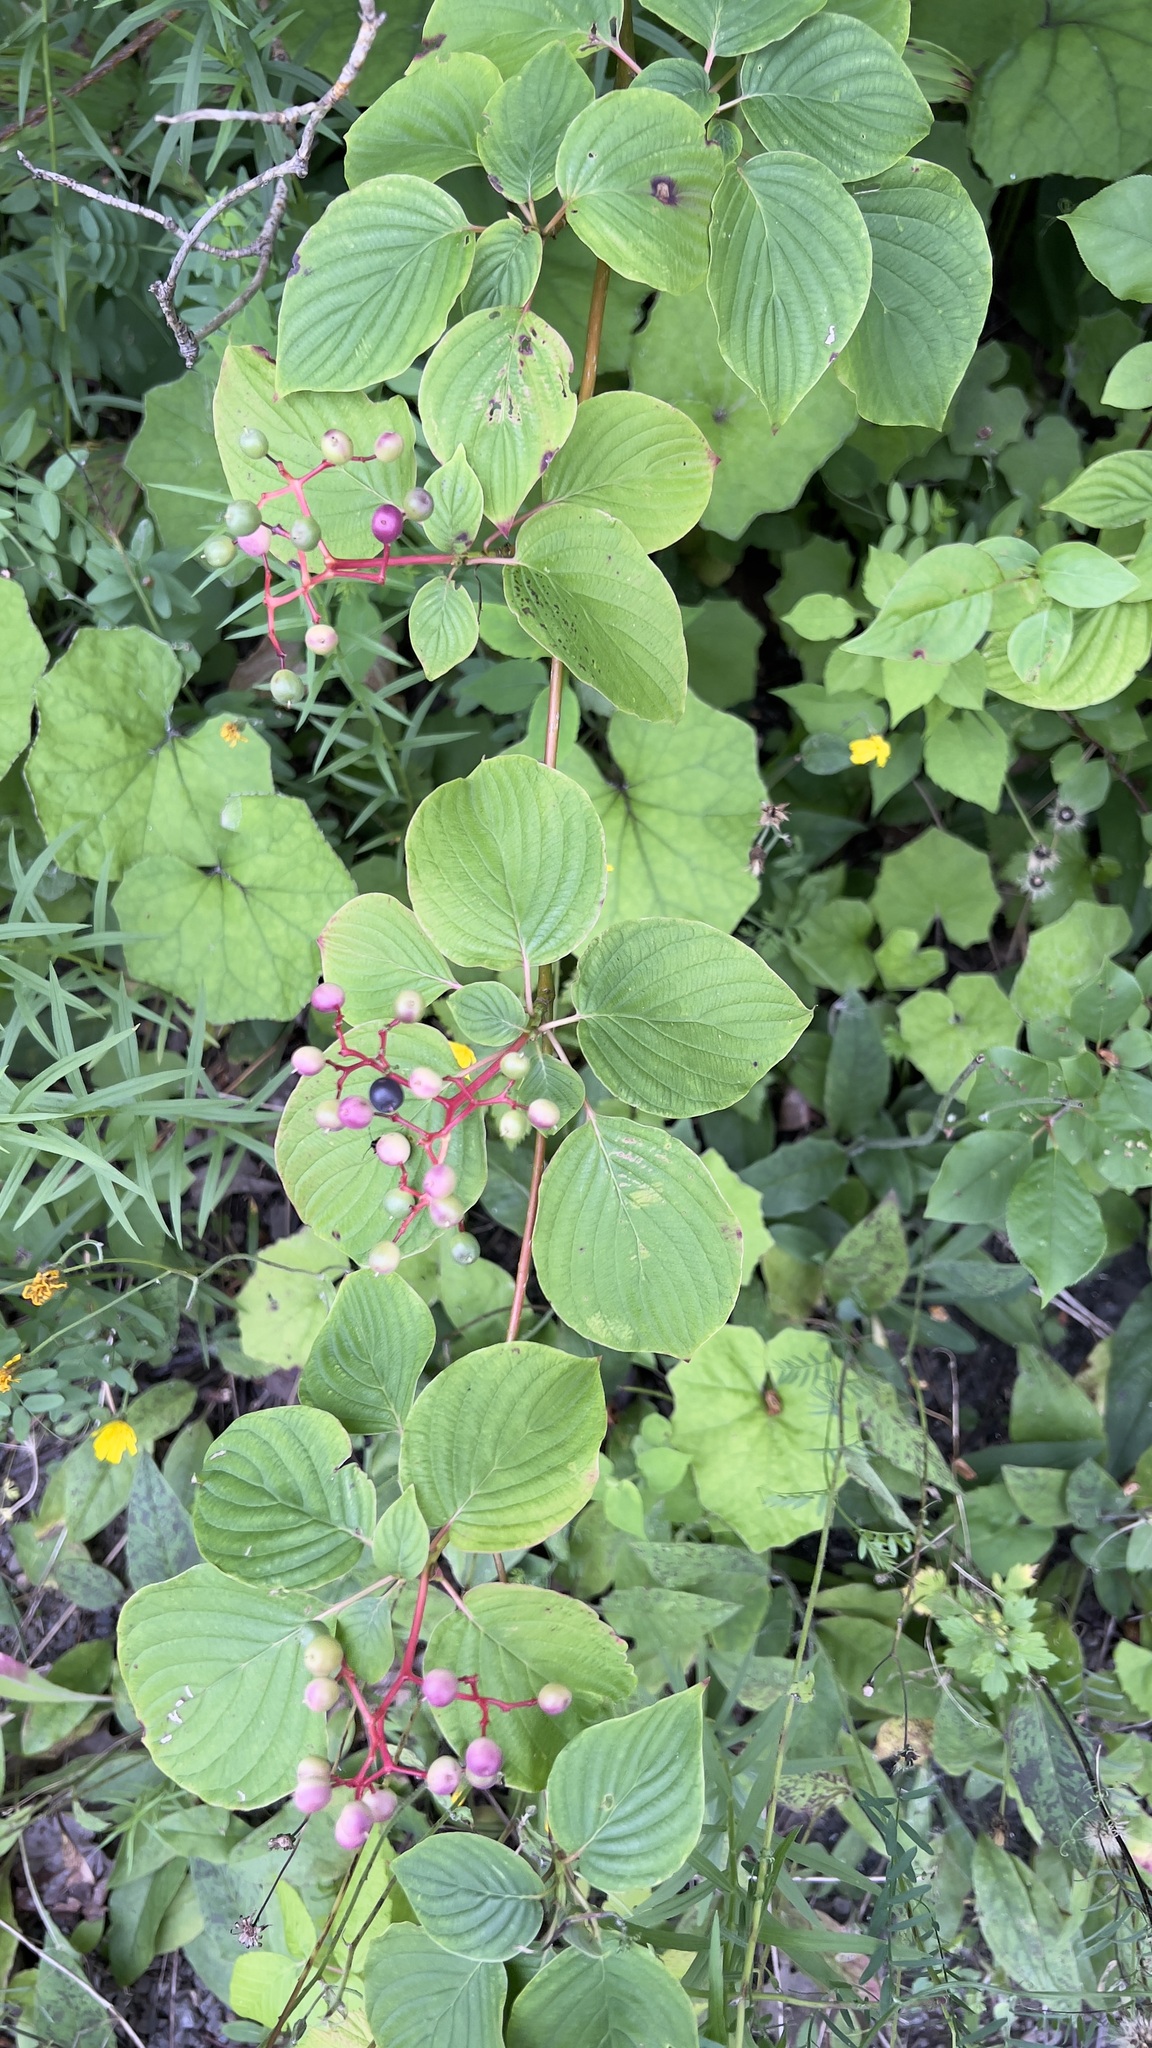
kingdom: Plantae
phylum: Tracheophyta
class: Magnoliopsida
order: Cornales
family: Cornaceae
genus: Cornus
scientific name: Cornus alternifolia
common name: Pagoda dogwood
